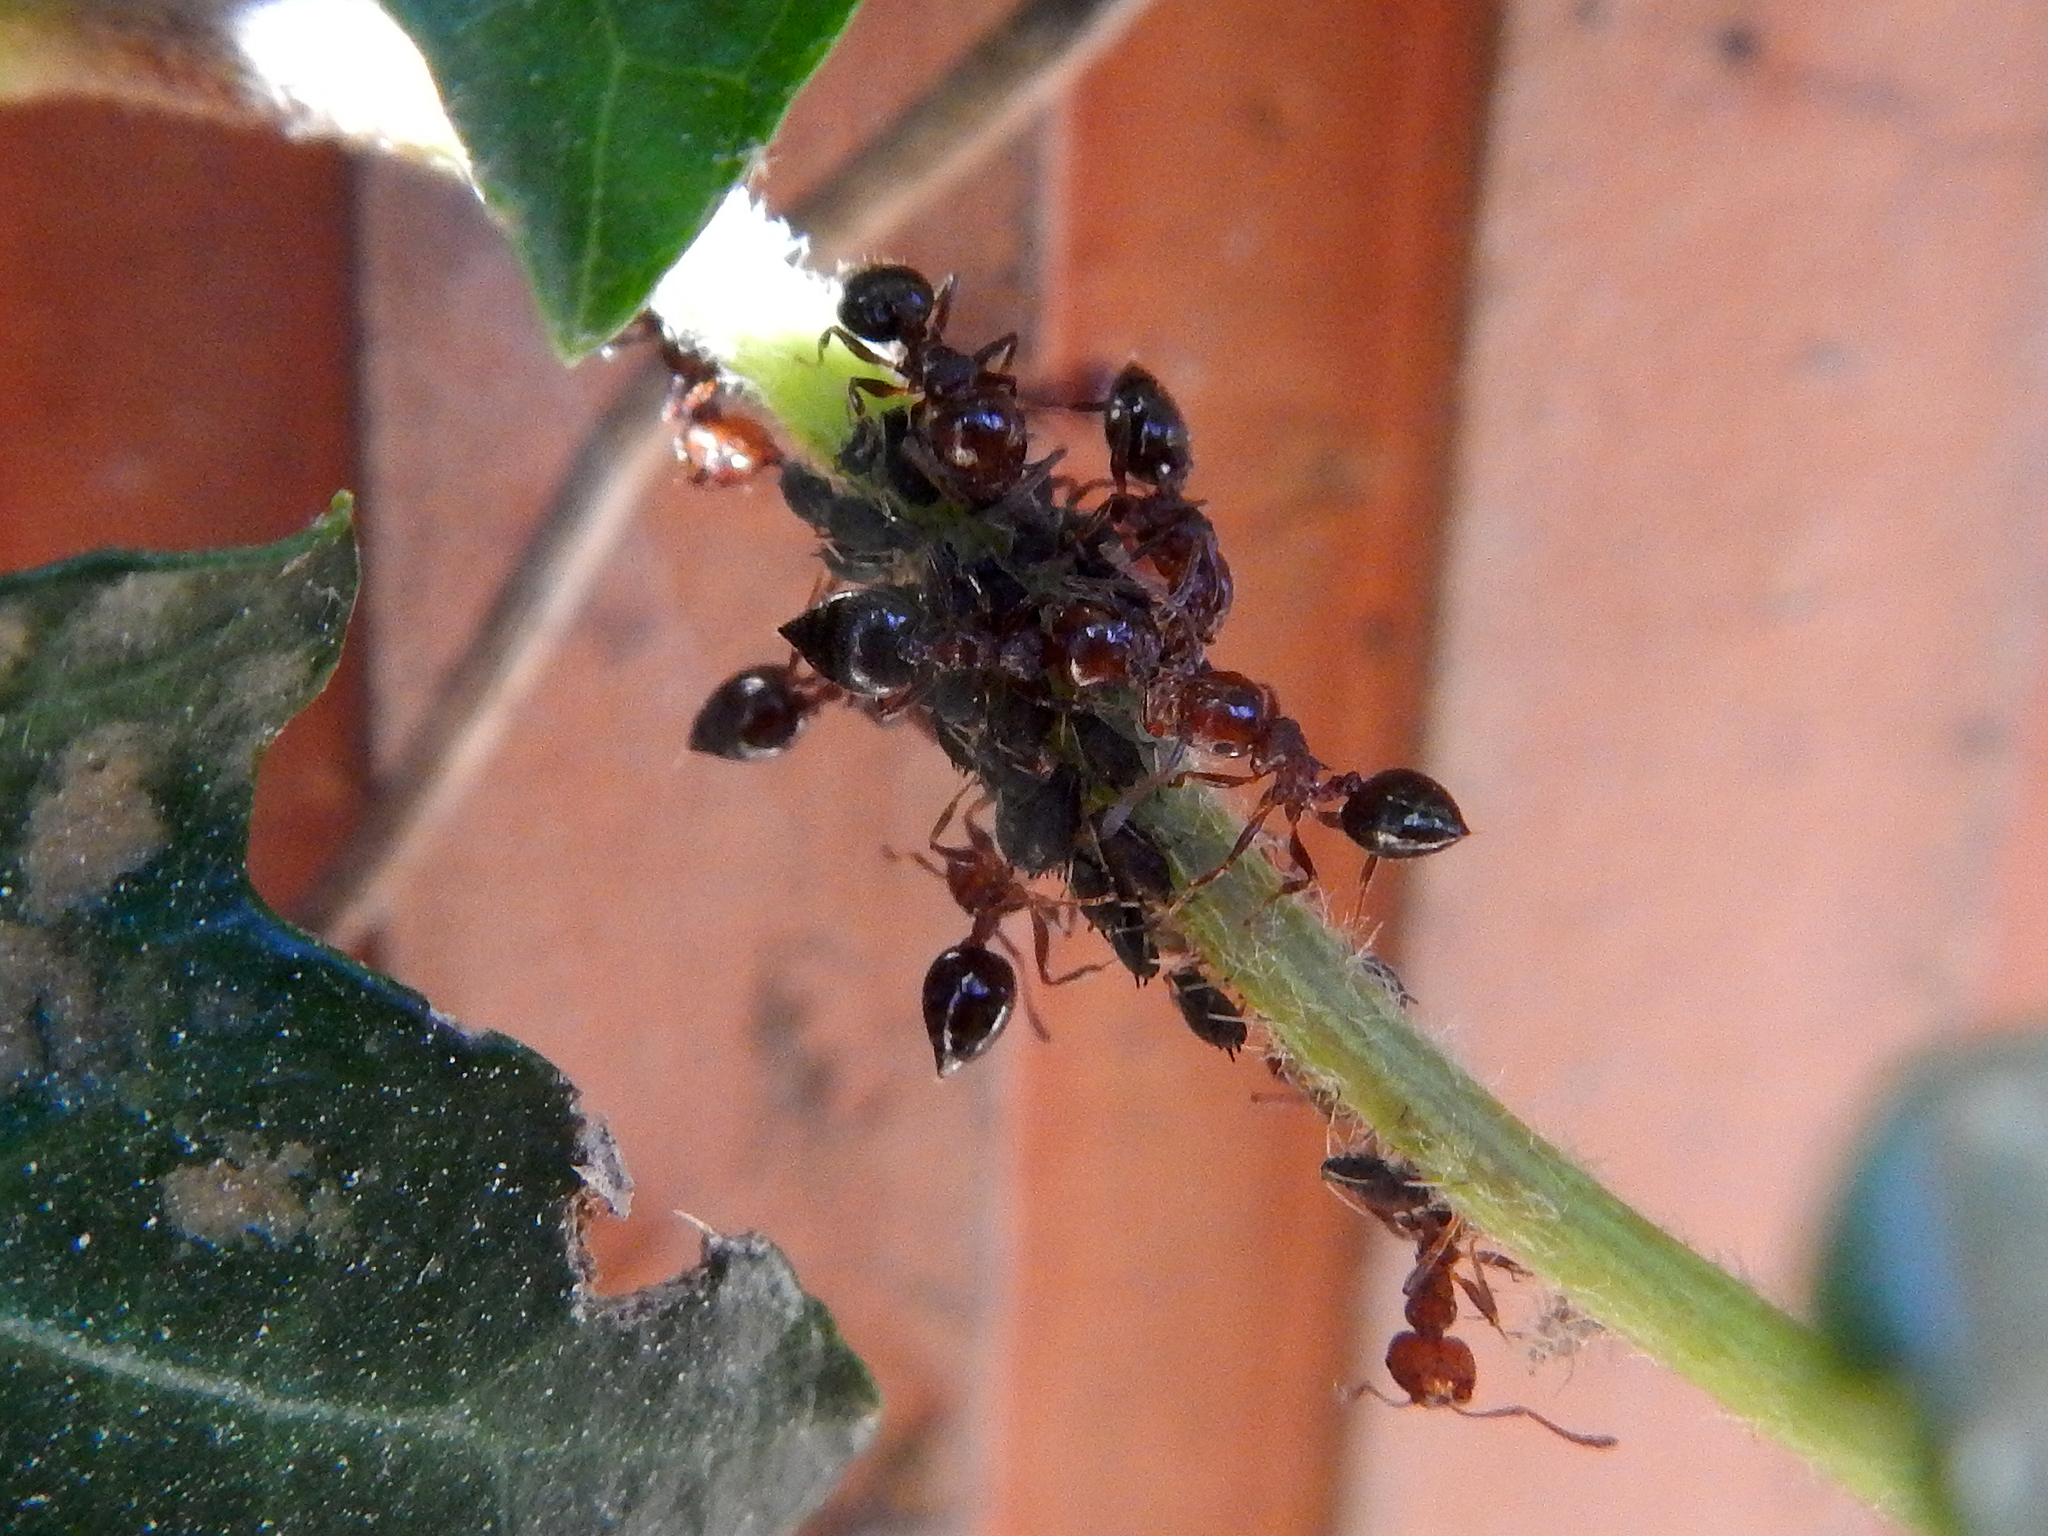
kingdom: Animalia
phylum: Arthropoda
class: Insecta
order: Hymenoptera
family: Formicidae
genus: Crematogaster
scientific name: Crematogaster schmidti
